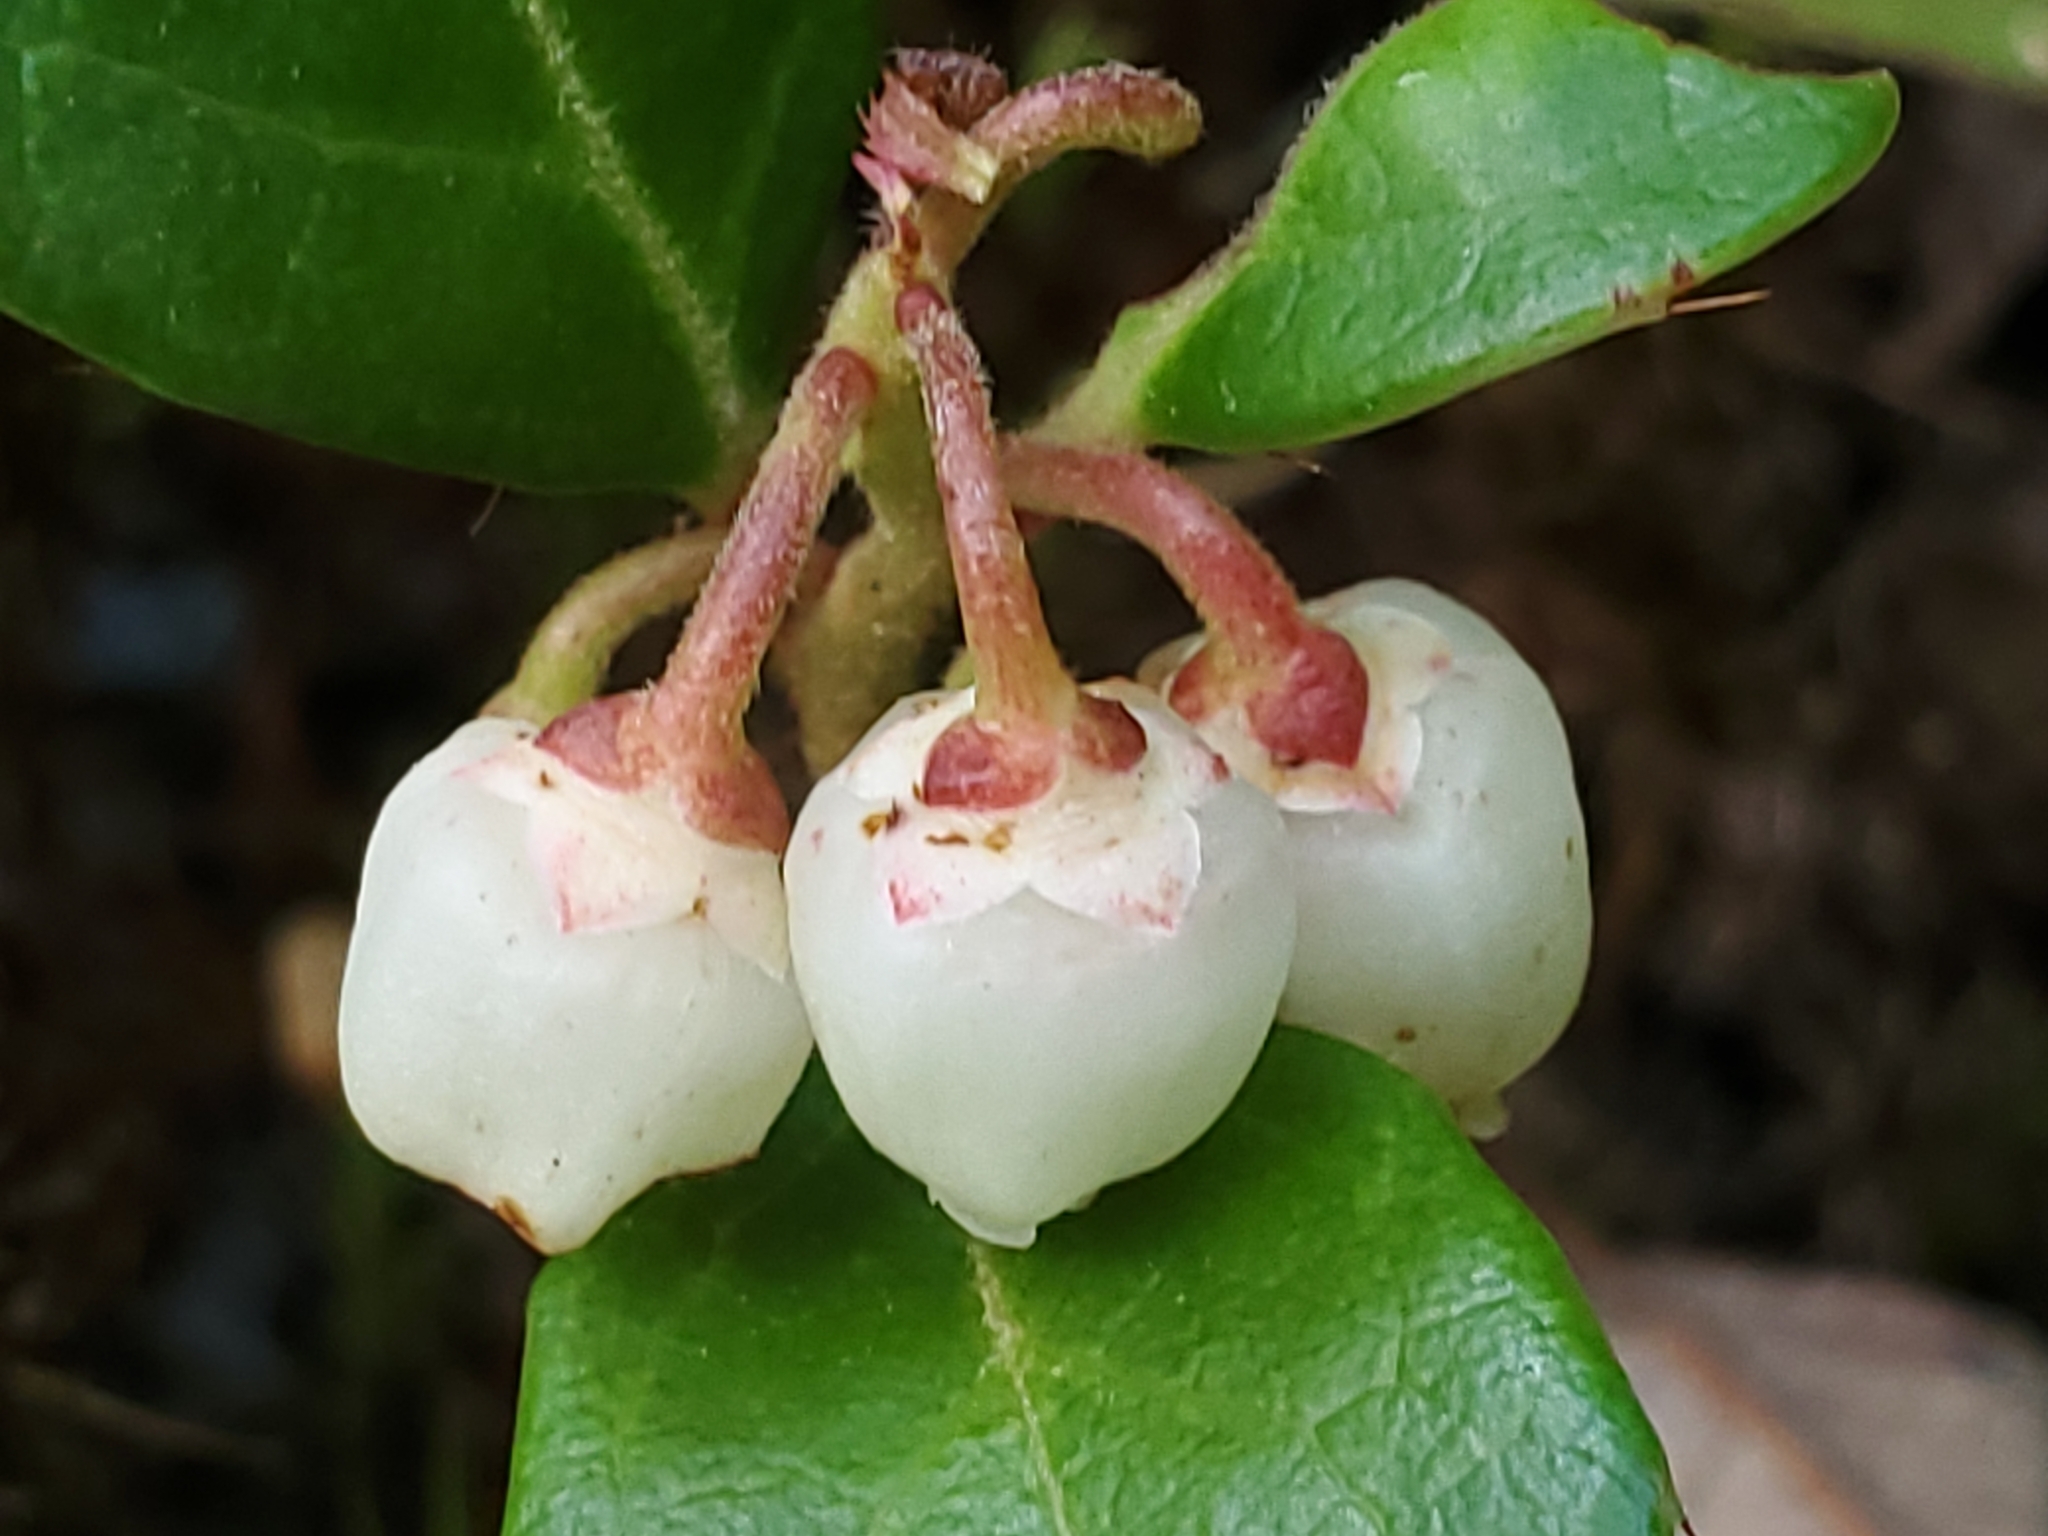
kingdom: Plantae
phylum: Tracheophyta
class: Magnoliopsida
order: Ericales
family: Ericaceae
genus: Gaultheria
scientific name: Gaultheria procumbens
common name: Checkerberry
